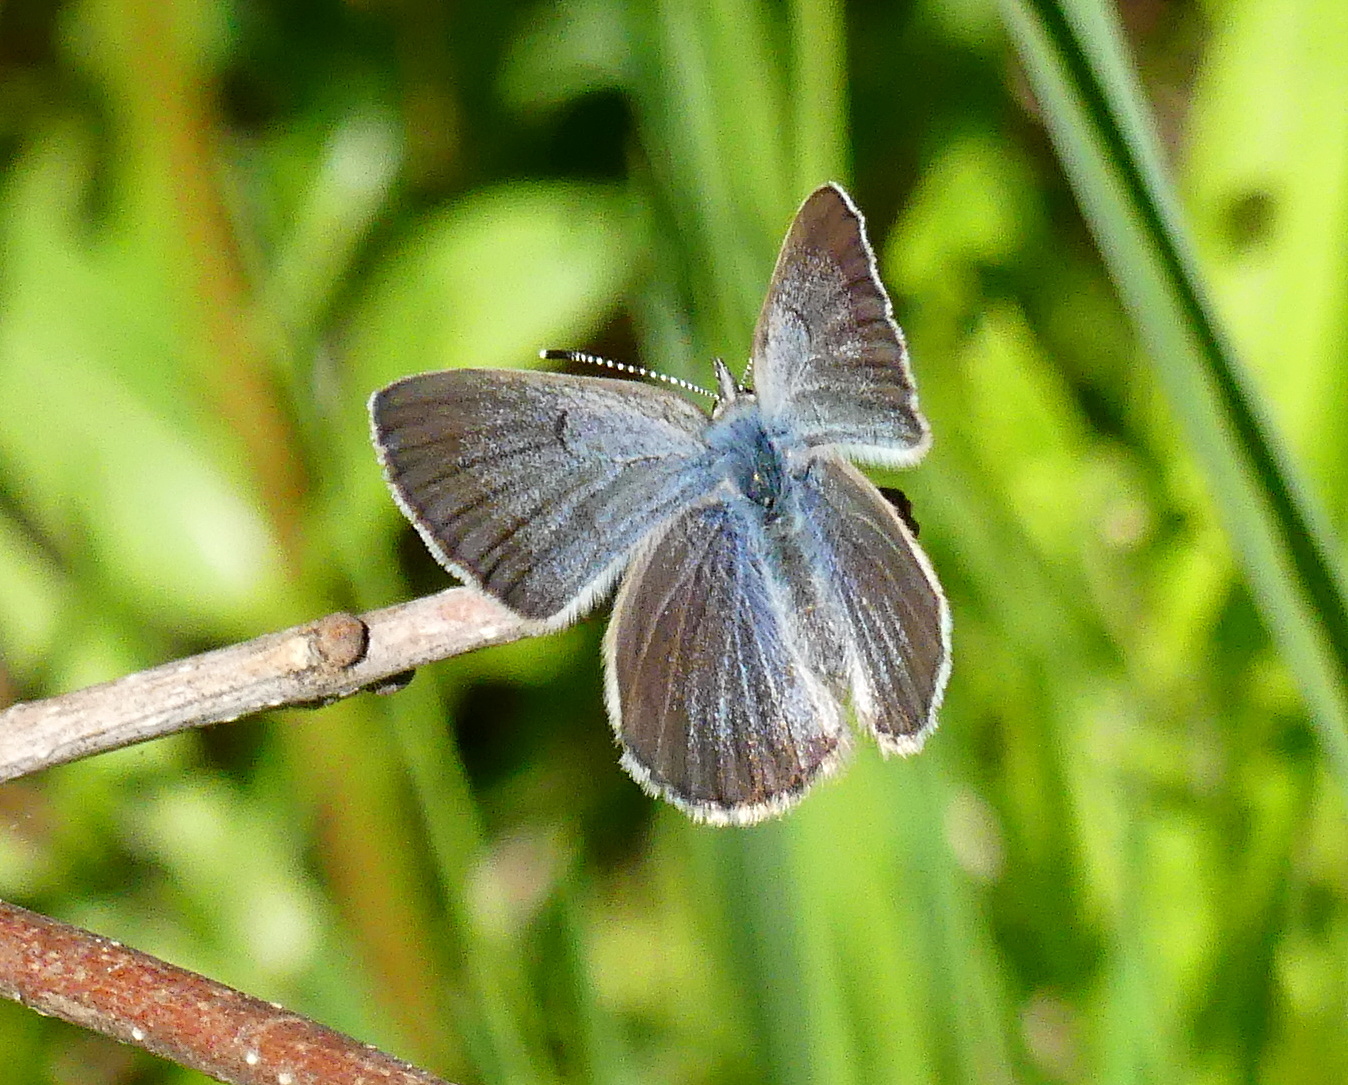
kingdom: Animalia
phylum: Arthropoda
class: Insecta
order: Lepidoptera
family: Lycaenidae
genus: Glaucopsyche
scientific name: Glaucopsyche lygdamus
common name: Silvery blue
